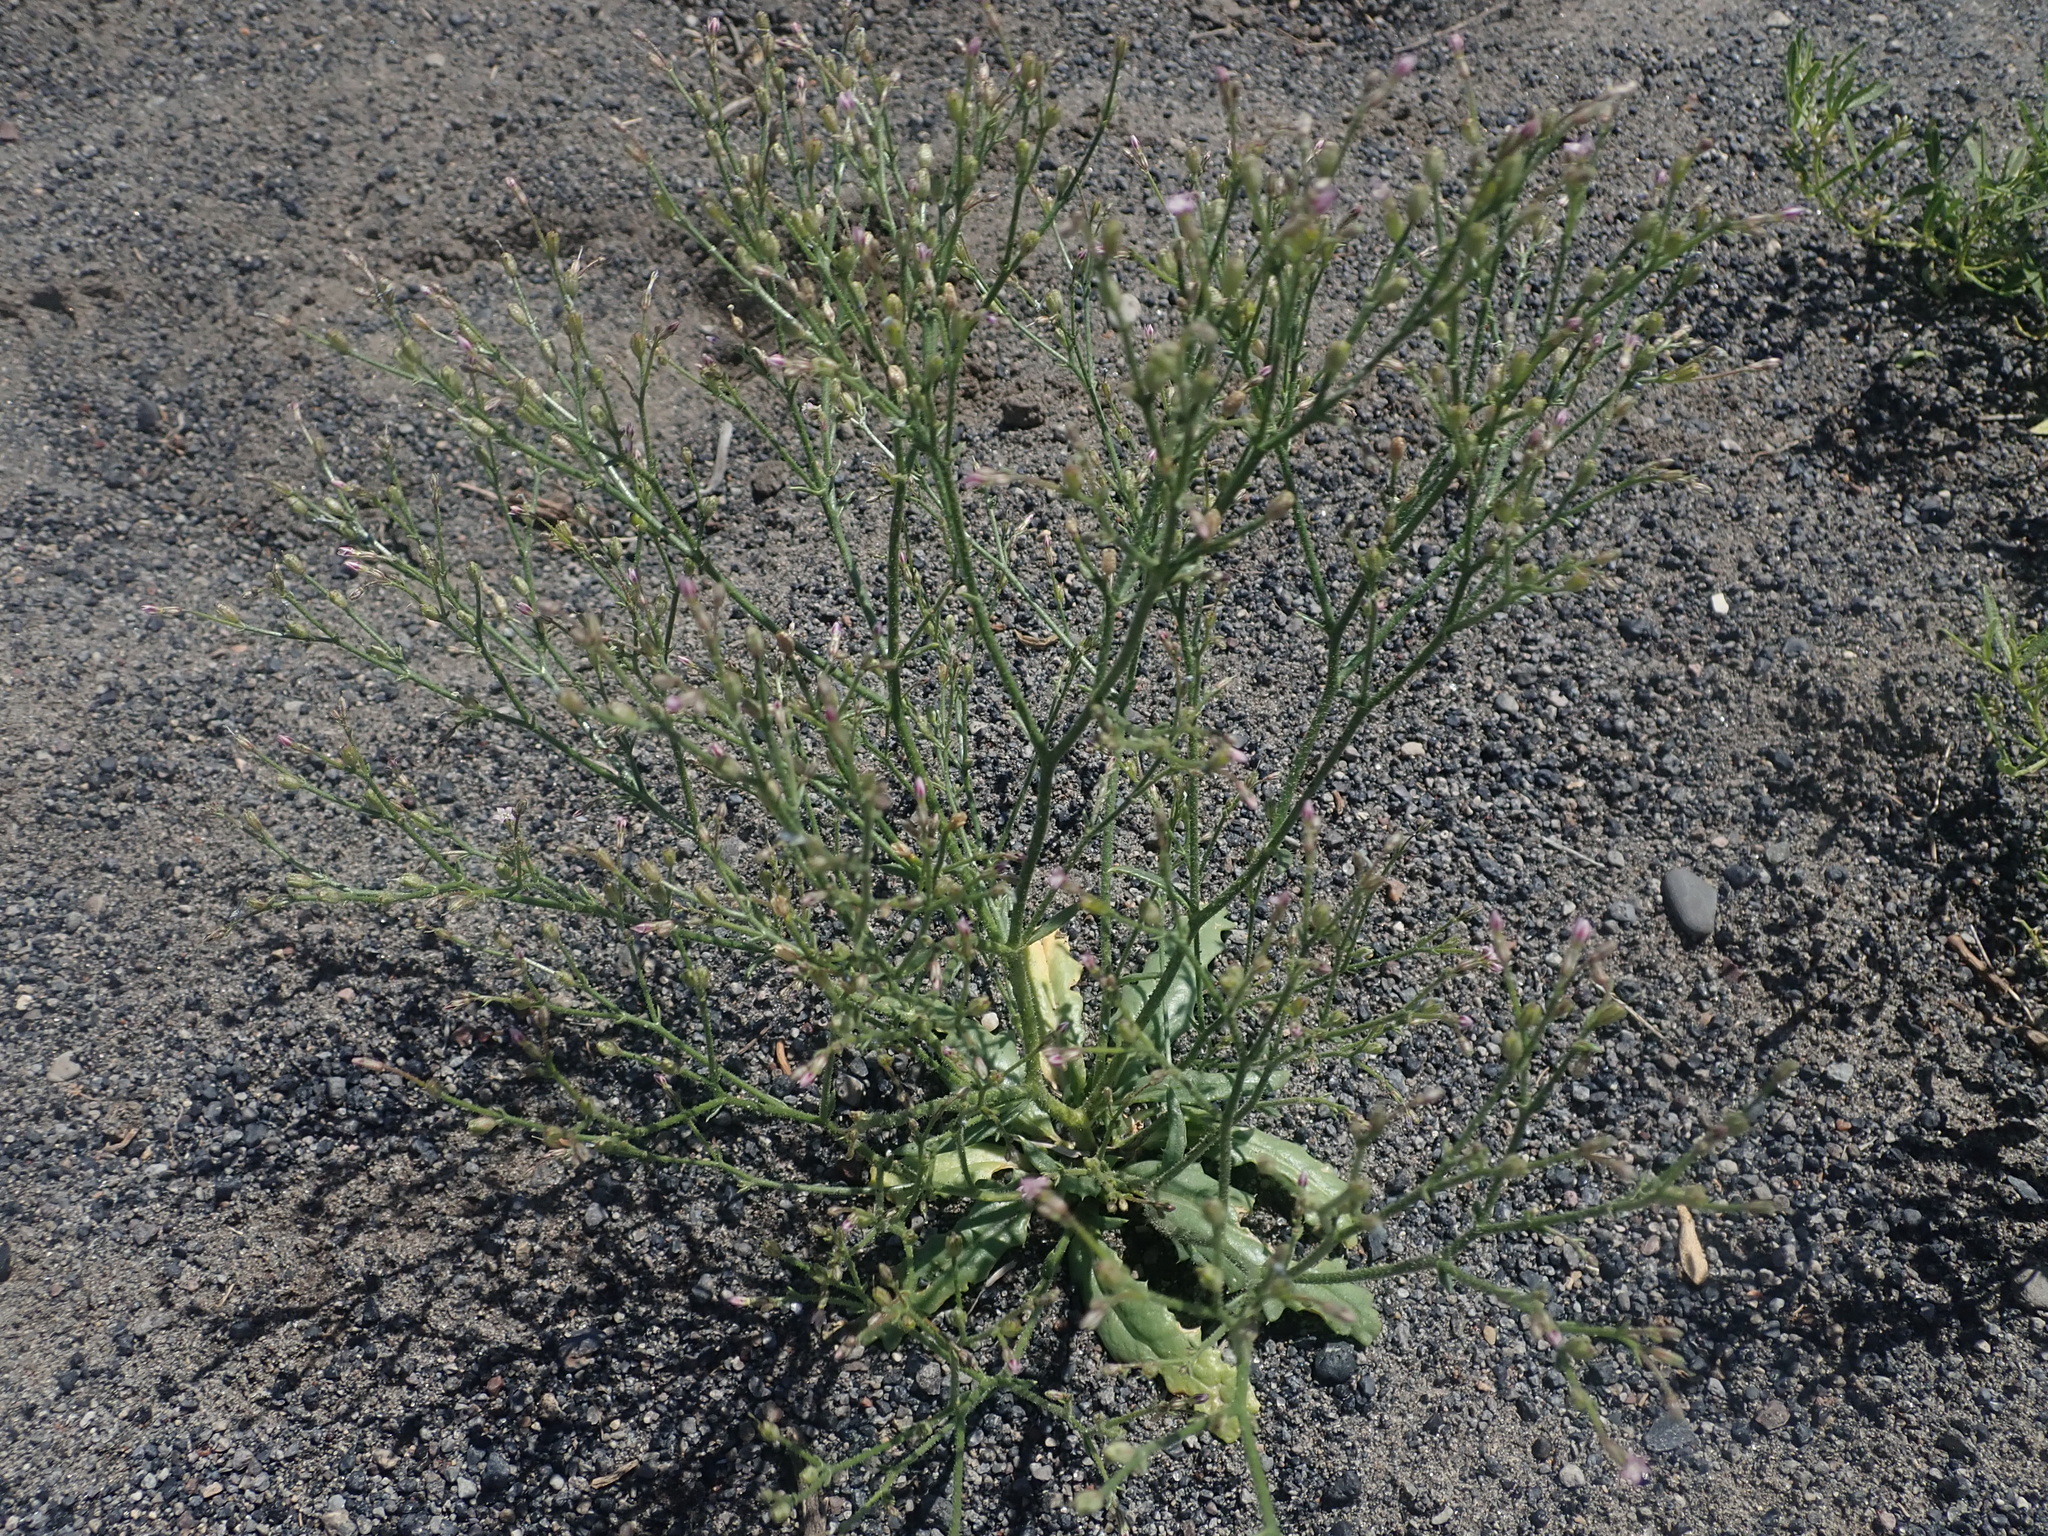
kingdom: Plantae
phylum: Tracheophyta
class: Magnoliopsida
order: Ericales
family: Polemoniaceae
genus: Aliciella
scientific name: Aliciella lottiae
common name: Lott's gilia
